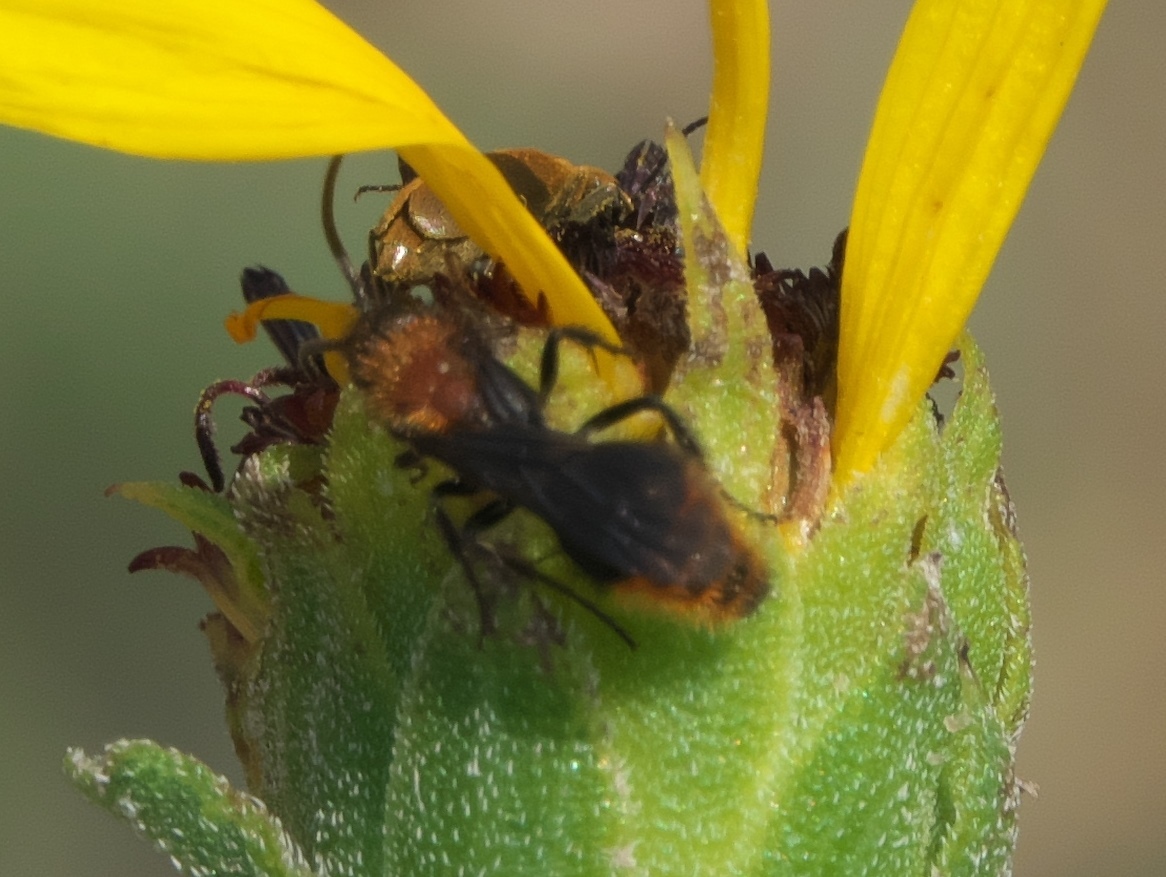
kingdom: Animalia
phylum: Arthropoda
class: Insecta
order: Hymenoptera
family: Mutillidae
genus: Pseudomethoca
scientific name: Pseudomethoca
